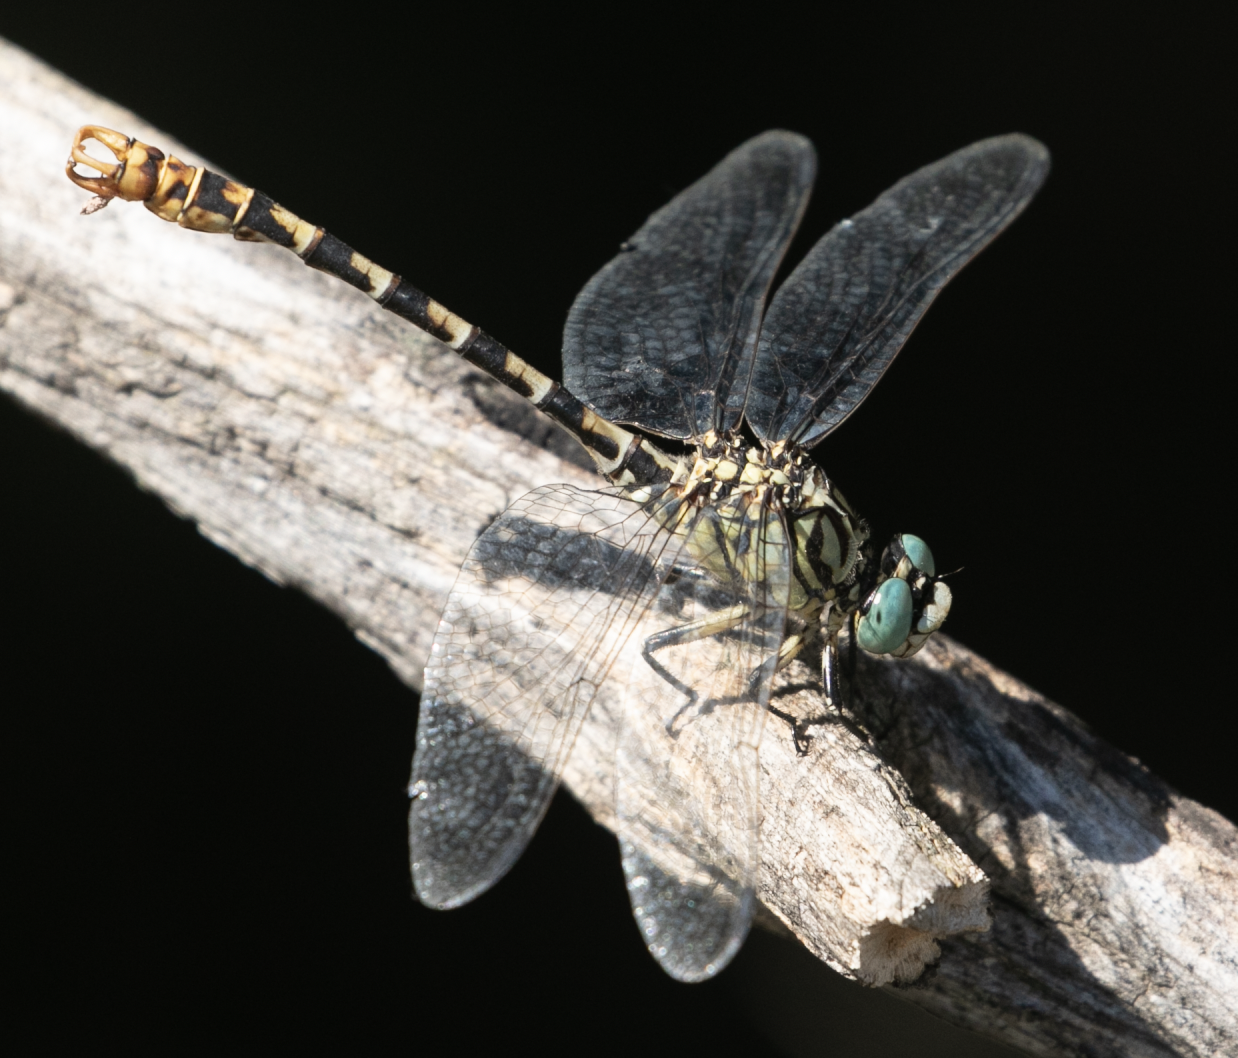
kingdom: Animalia
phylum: Arthropoda
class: Insecta
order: Odonata
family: Gomphidae
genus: Onychogomphus
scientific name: Onychogomphus forcipatus
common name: Small pincertail
